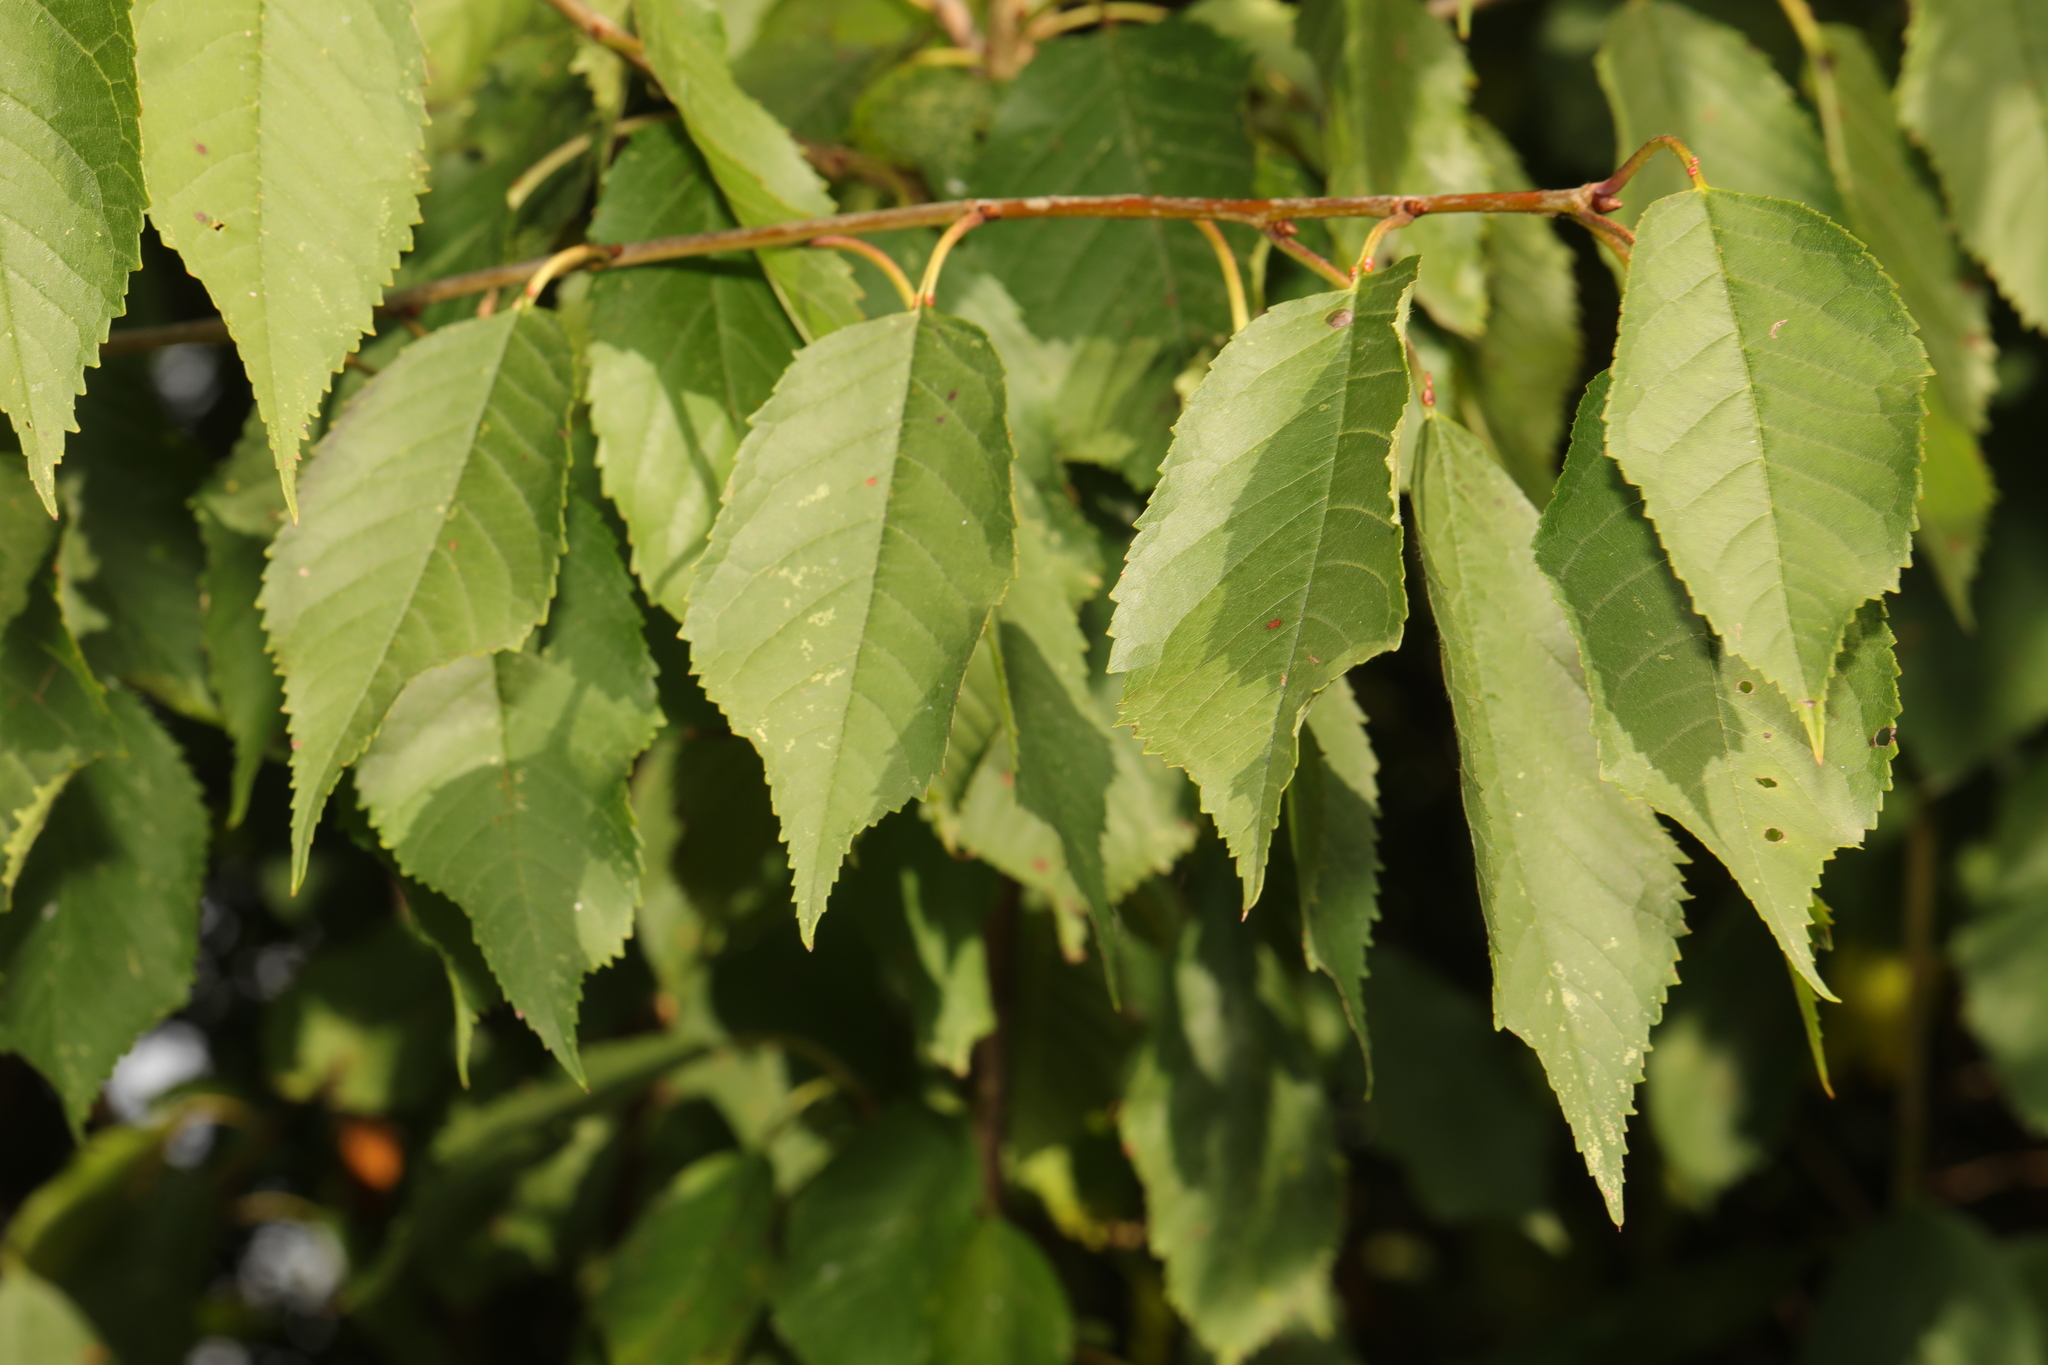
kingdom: Plantae
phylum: Tracheophyta
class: Magnoliopsida
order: Rosales
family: Rosaceae
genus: Prunus
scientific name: Prunus avium
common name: Sweet cherry
